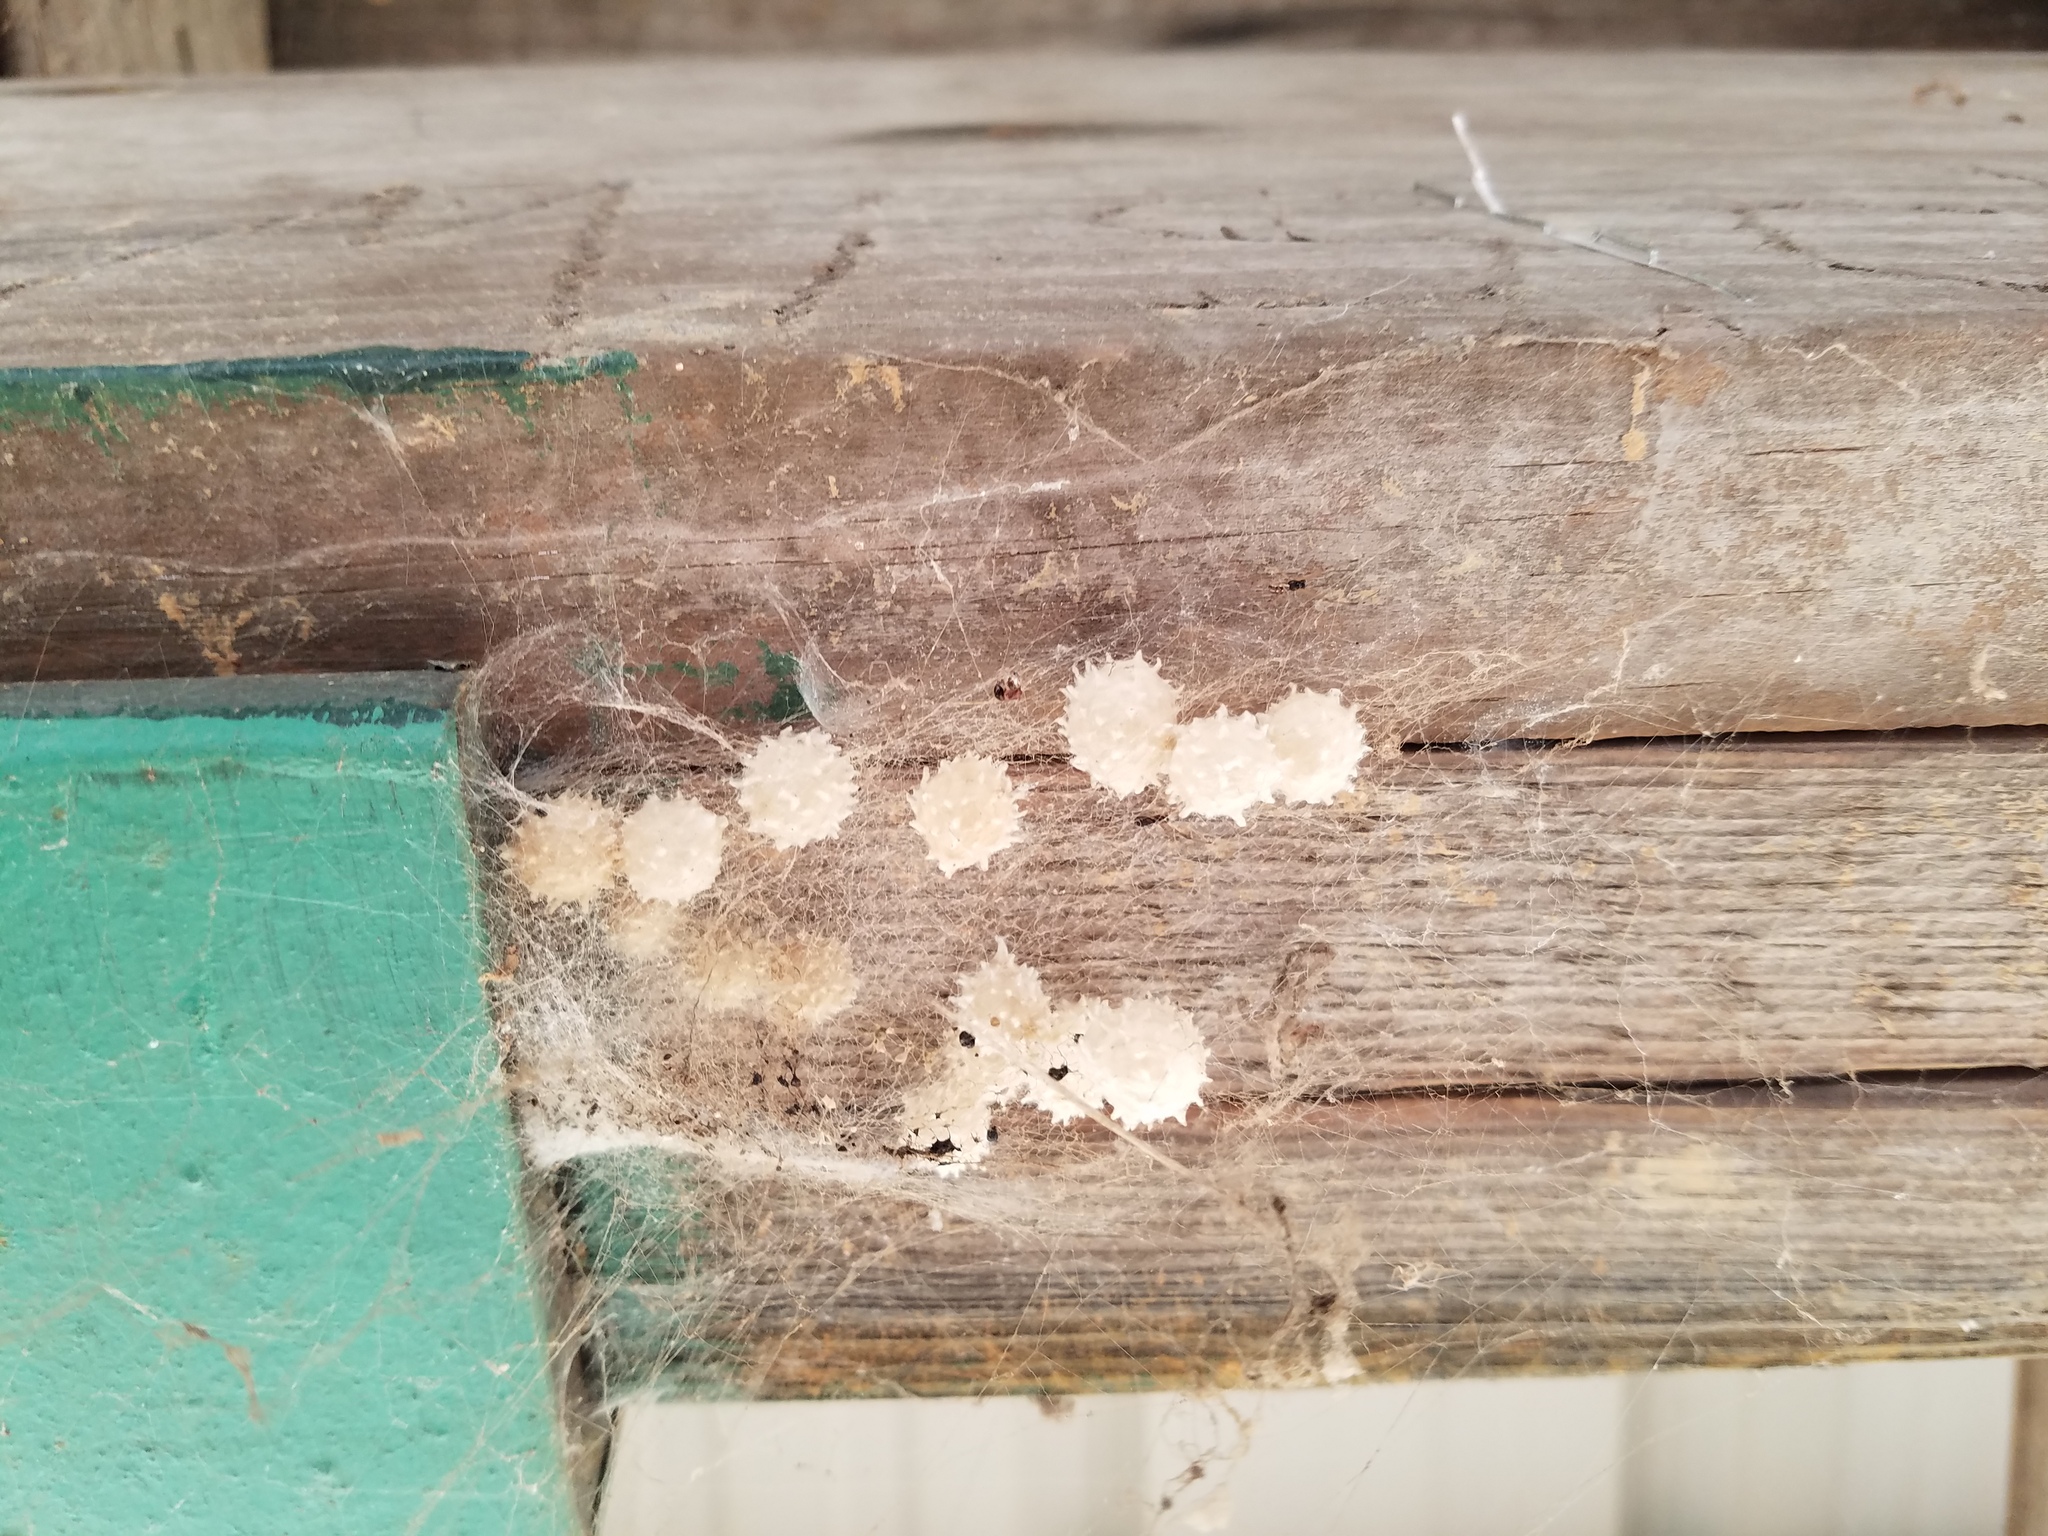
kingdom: Animalia
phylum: Arthropoda
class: Arachnida
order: Araneae
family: Theridiidae
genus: Latrodectus
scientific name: Latrodectus geometricus
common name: Brown widow spider
